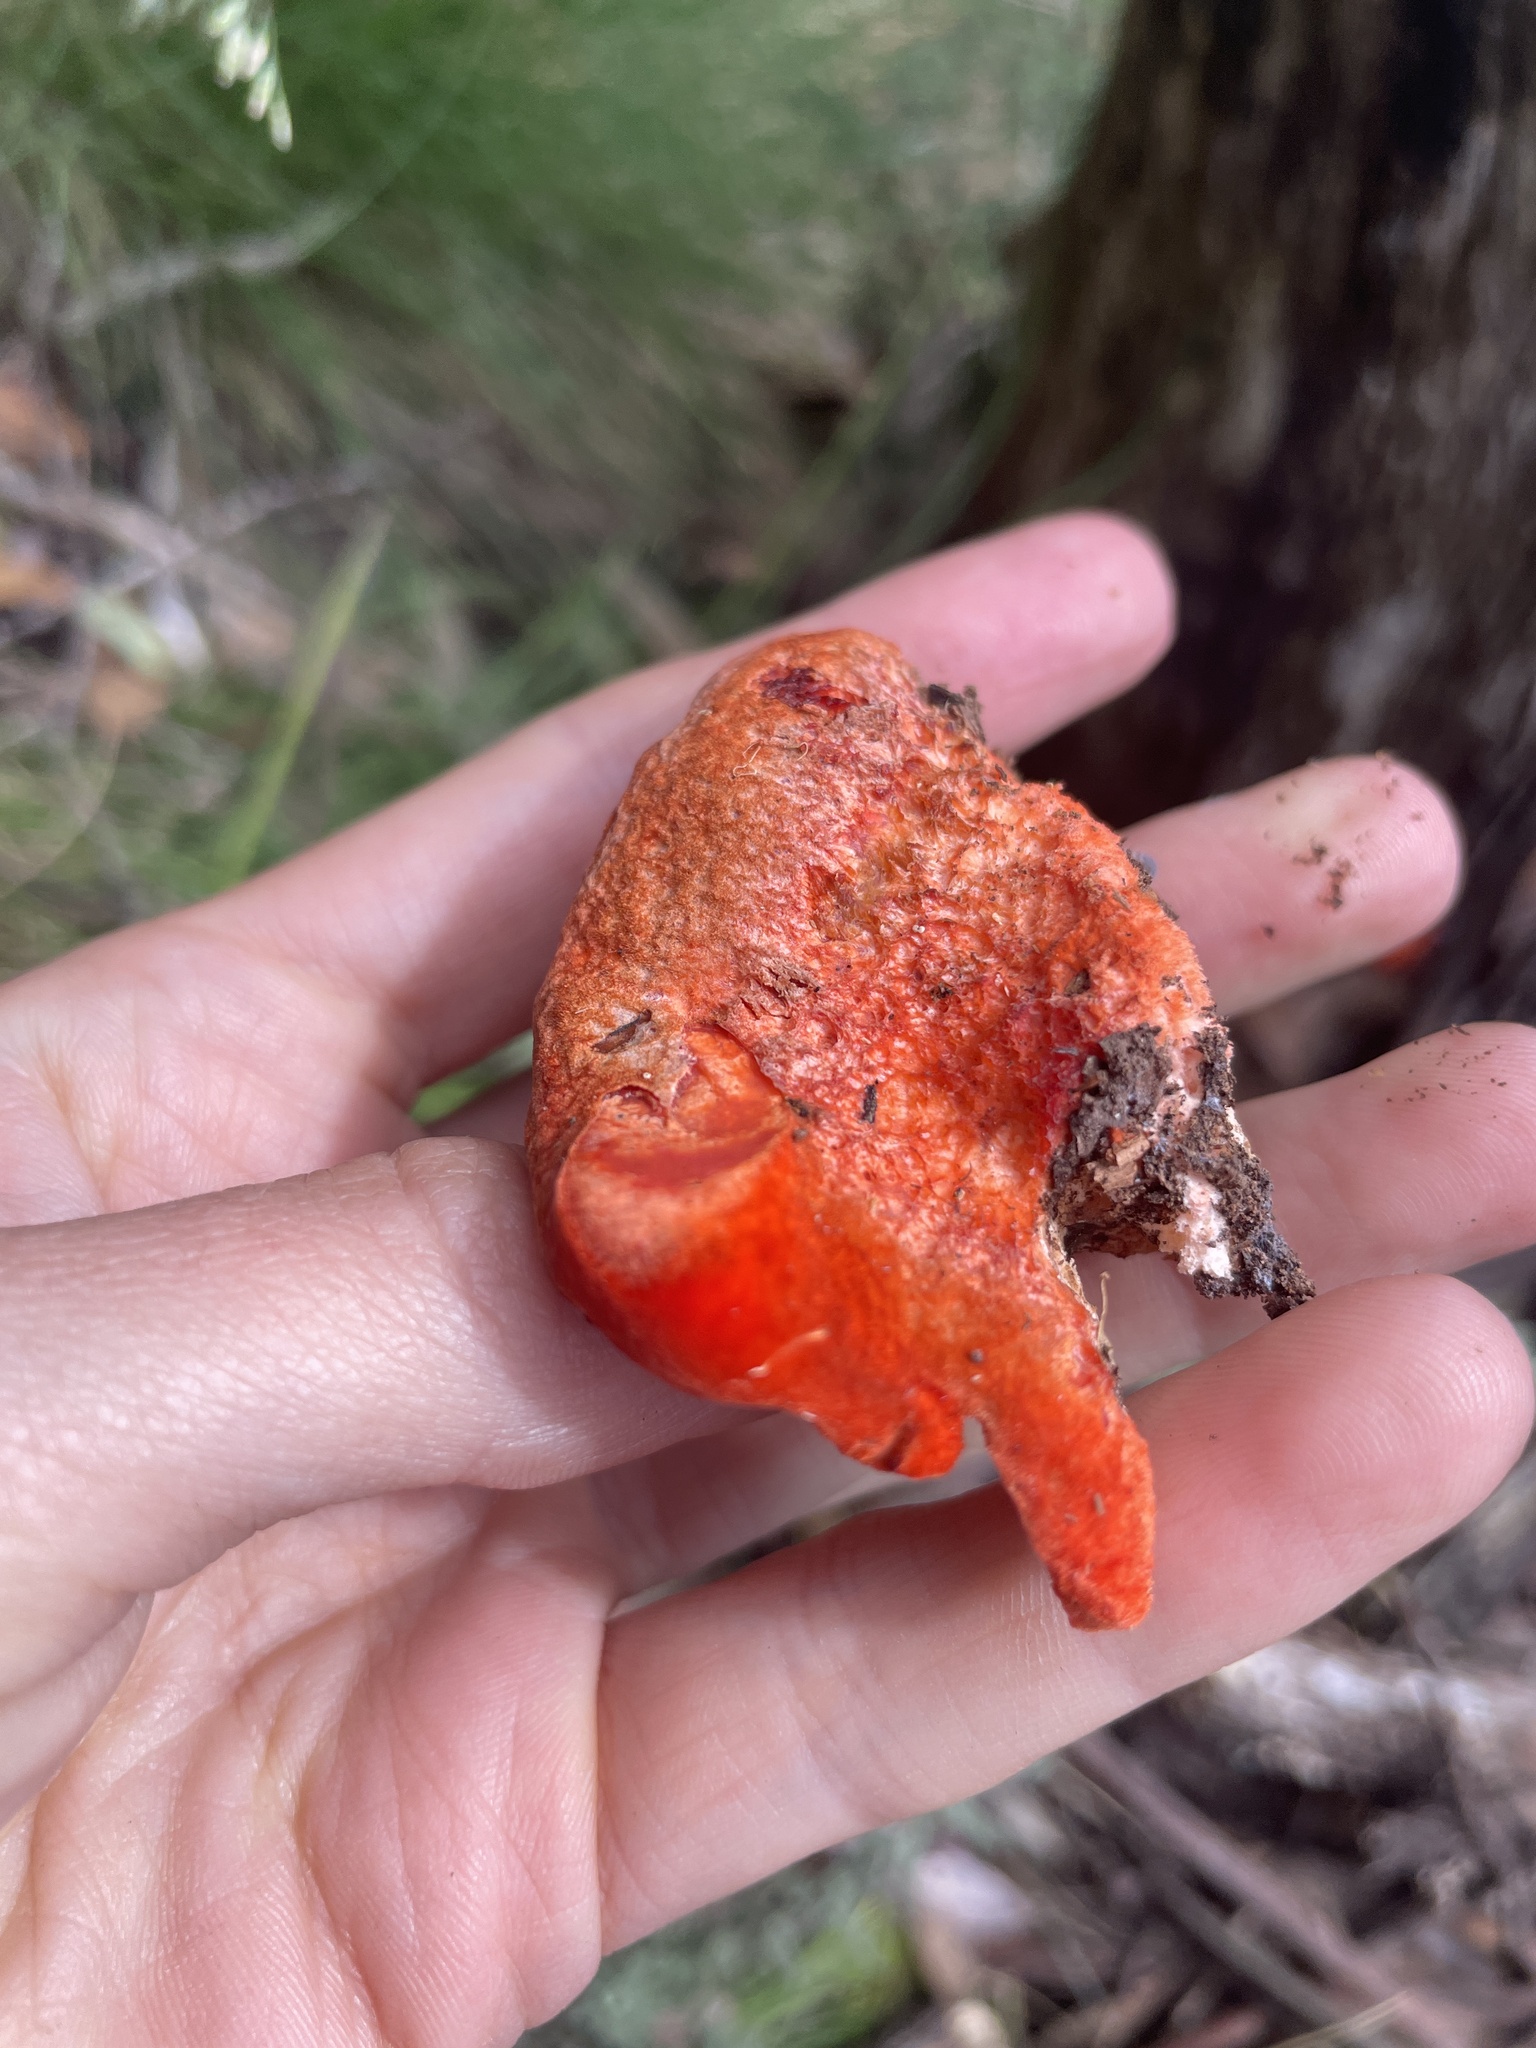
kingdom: Fungi
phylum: Basidiomycota
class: Agaricomycetes
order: Polyporales
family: Incrustoporiaceae
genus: Tyromyces
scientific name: Tyromyces pulcherrimus
